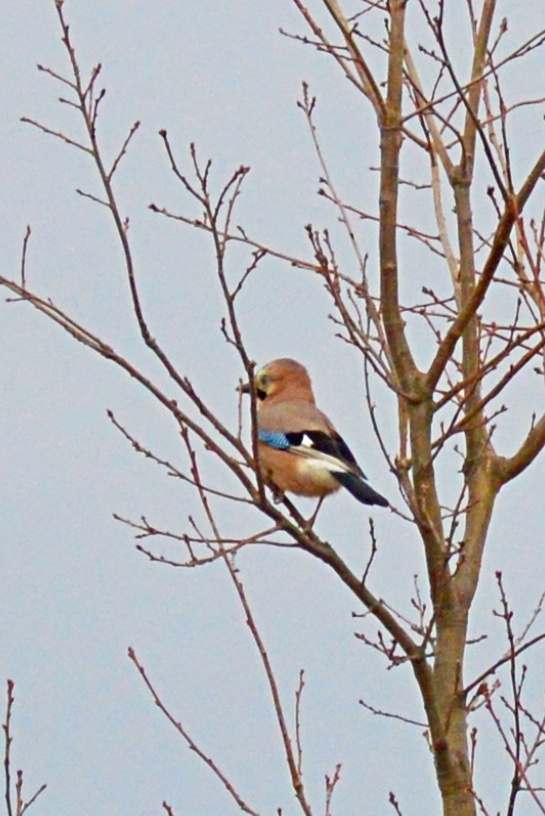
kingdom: Animalia
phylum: Chordata
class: Aves
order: Passeriformes
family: Corvidae
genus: Garrulus
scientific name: Garrulus glandarius
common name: Eurasian jay
